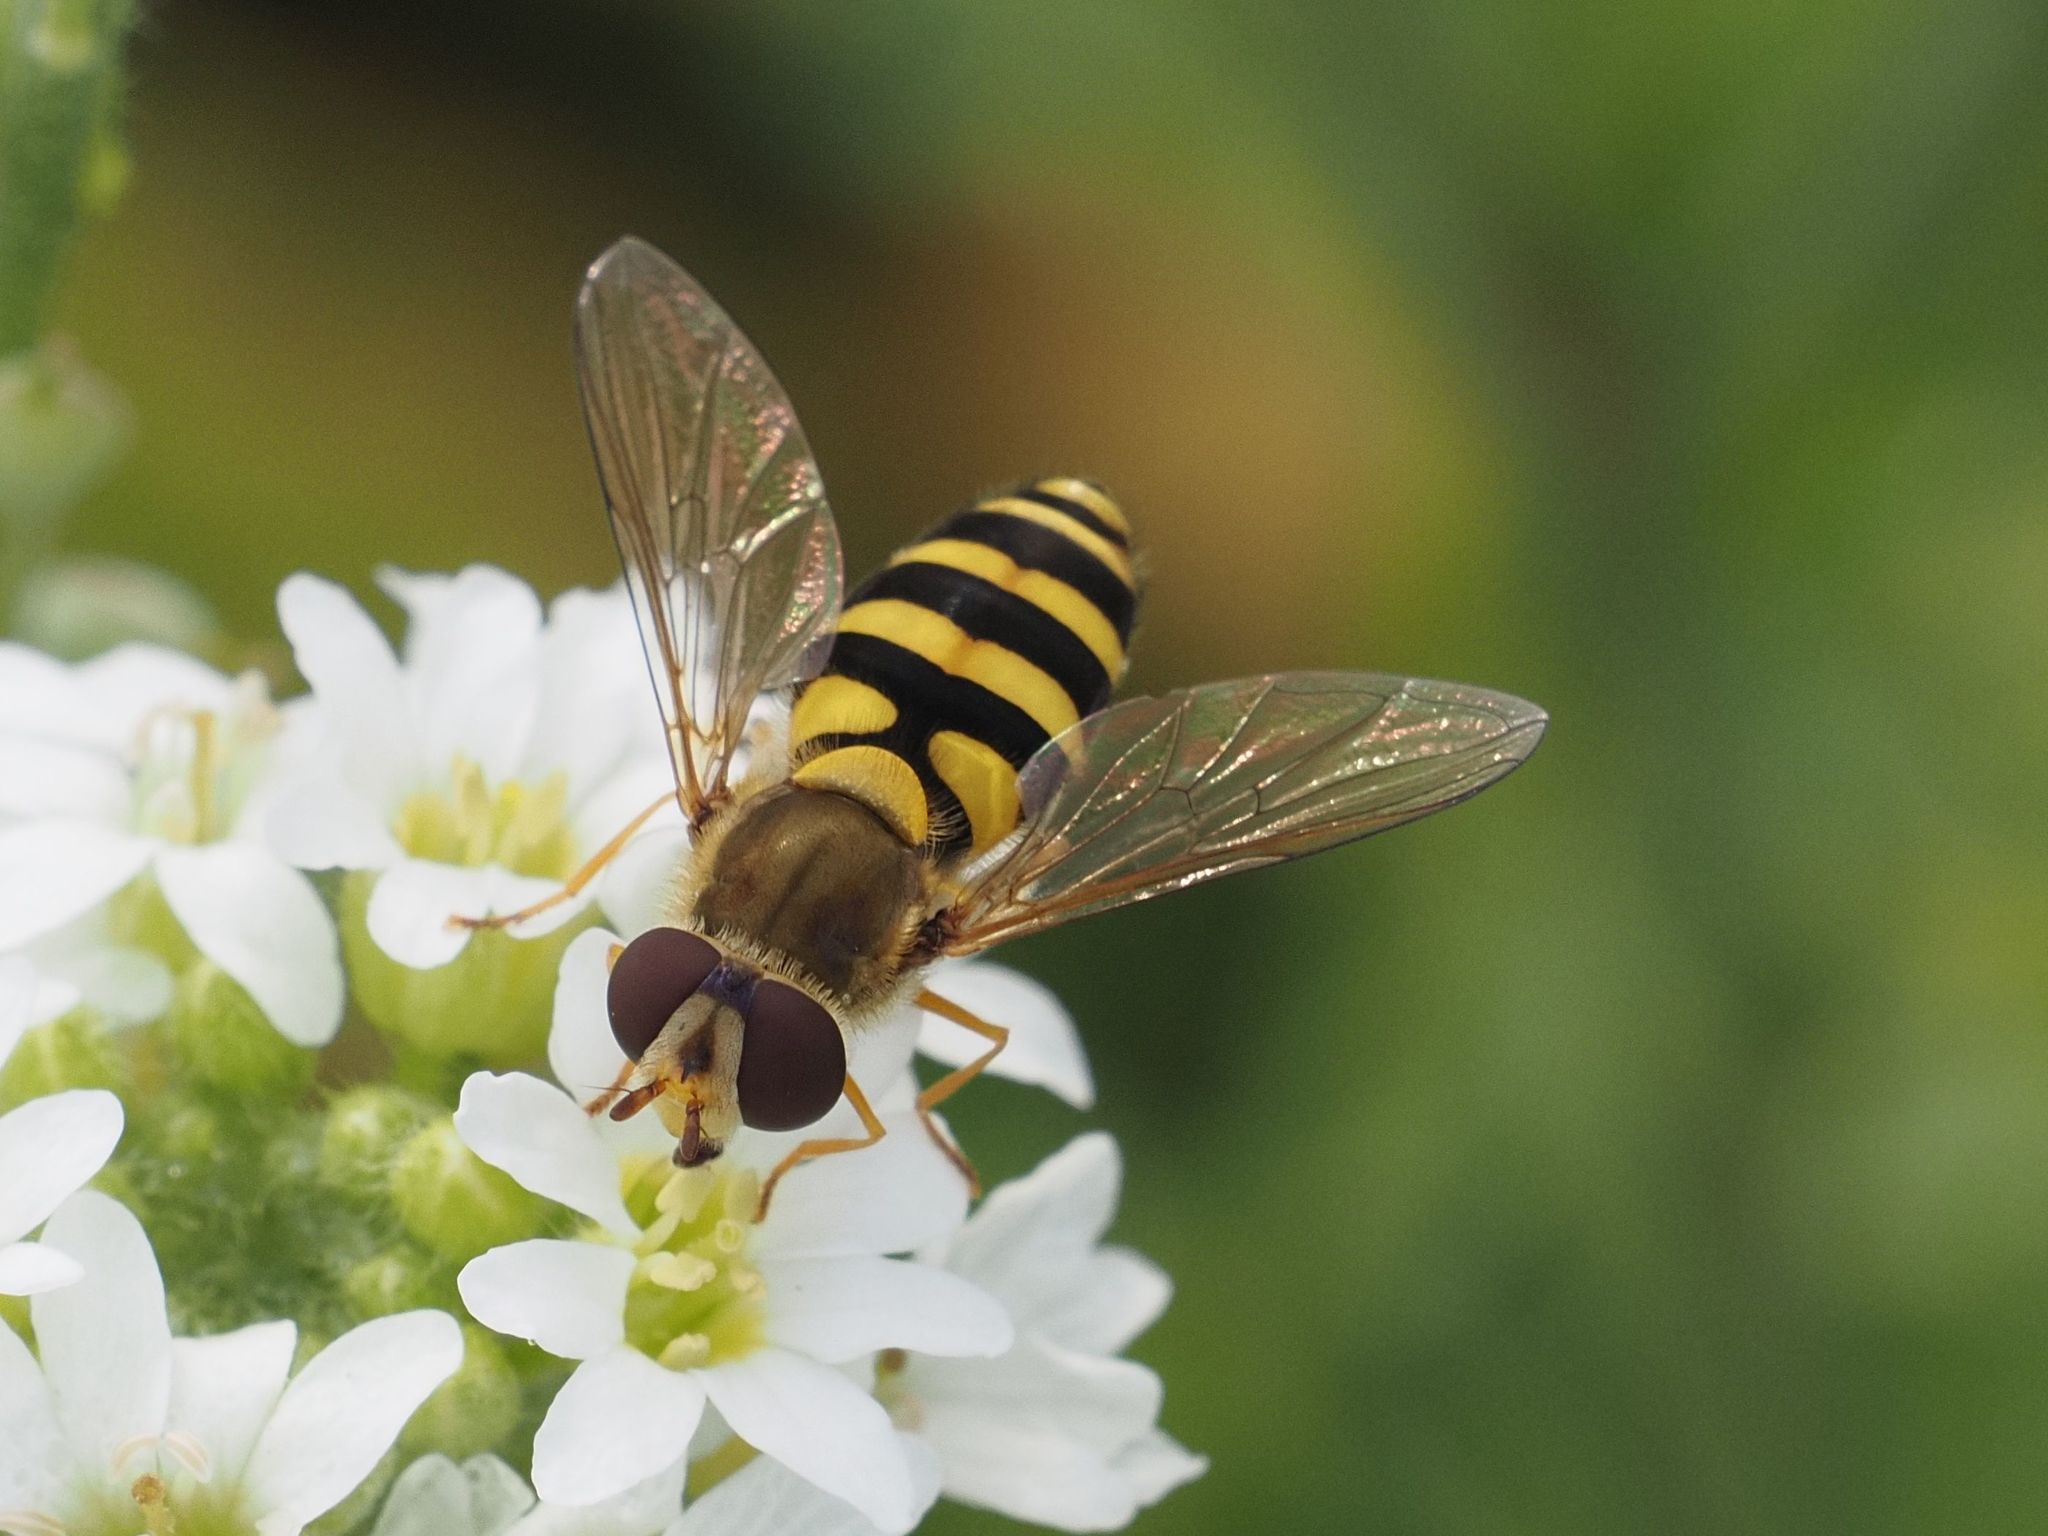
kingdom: Animalia
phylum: Arthropoda
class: Insecta
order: Diptera
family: Syrphidae
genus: Syrphus
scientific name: Syrphus
